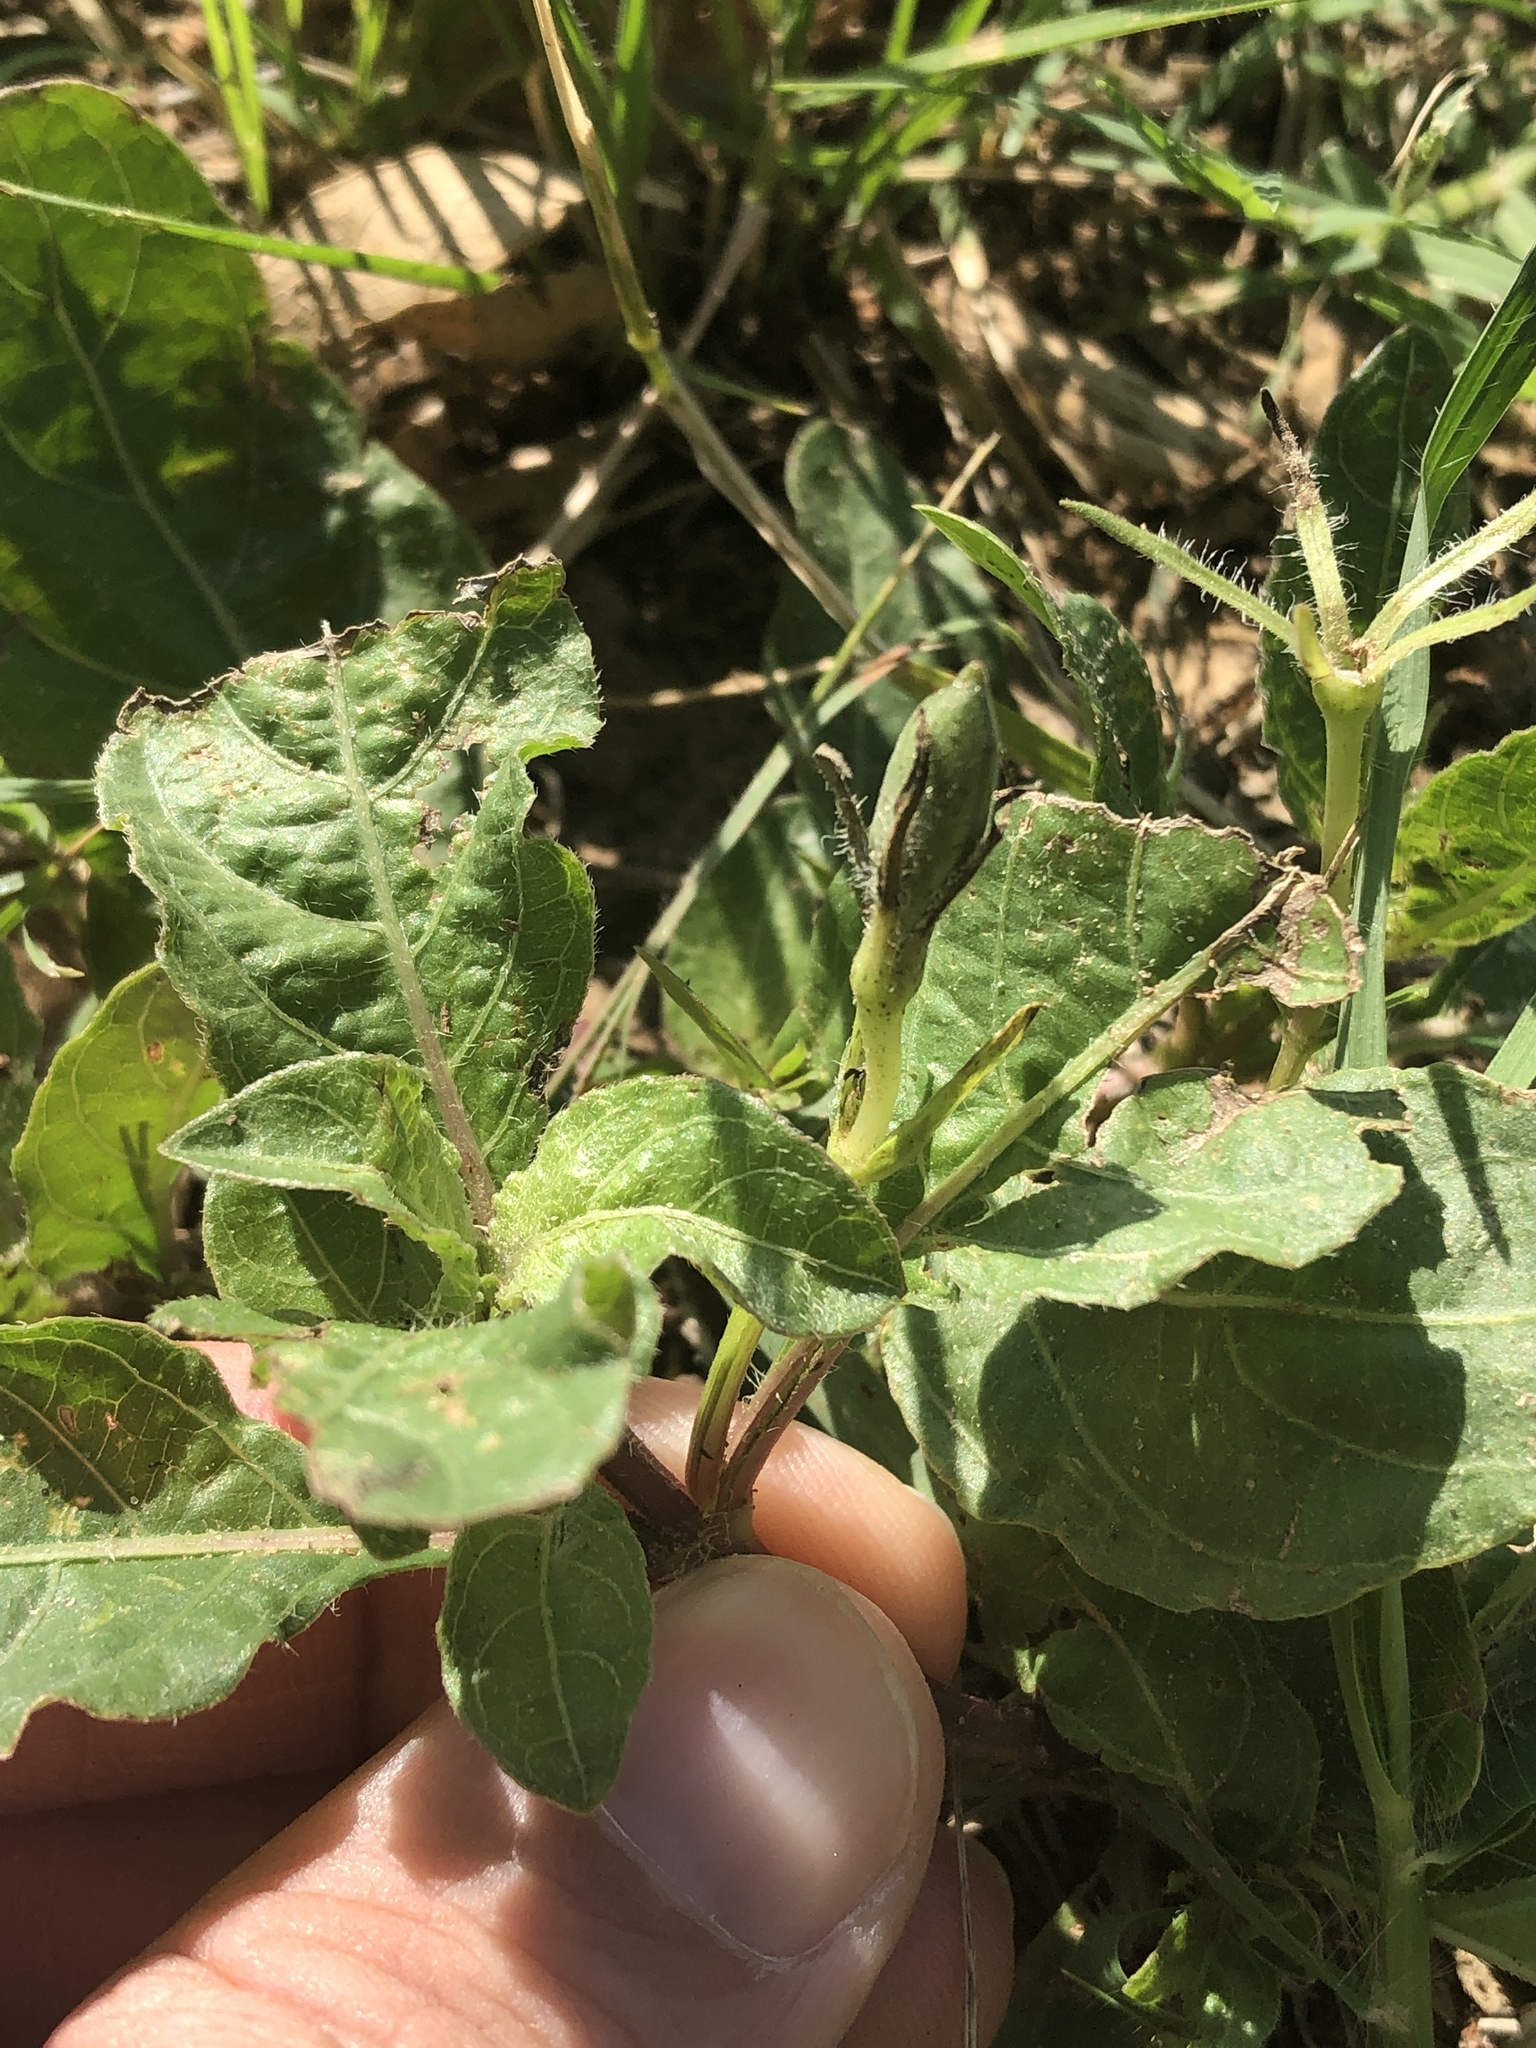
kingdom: Plantae
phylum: Tracheophyta
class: Magnoliopsida
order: Lamiales
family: Acanthaceae
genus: Ruellia
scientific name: Ruellia ciliatiflora
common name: Hairyflower wild petunia
